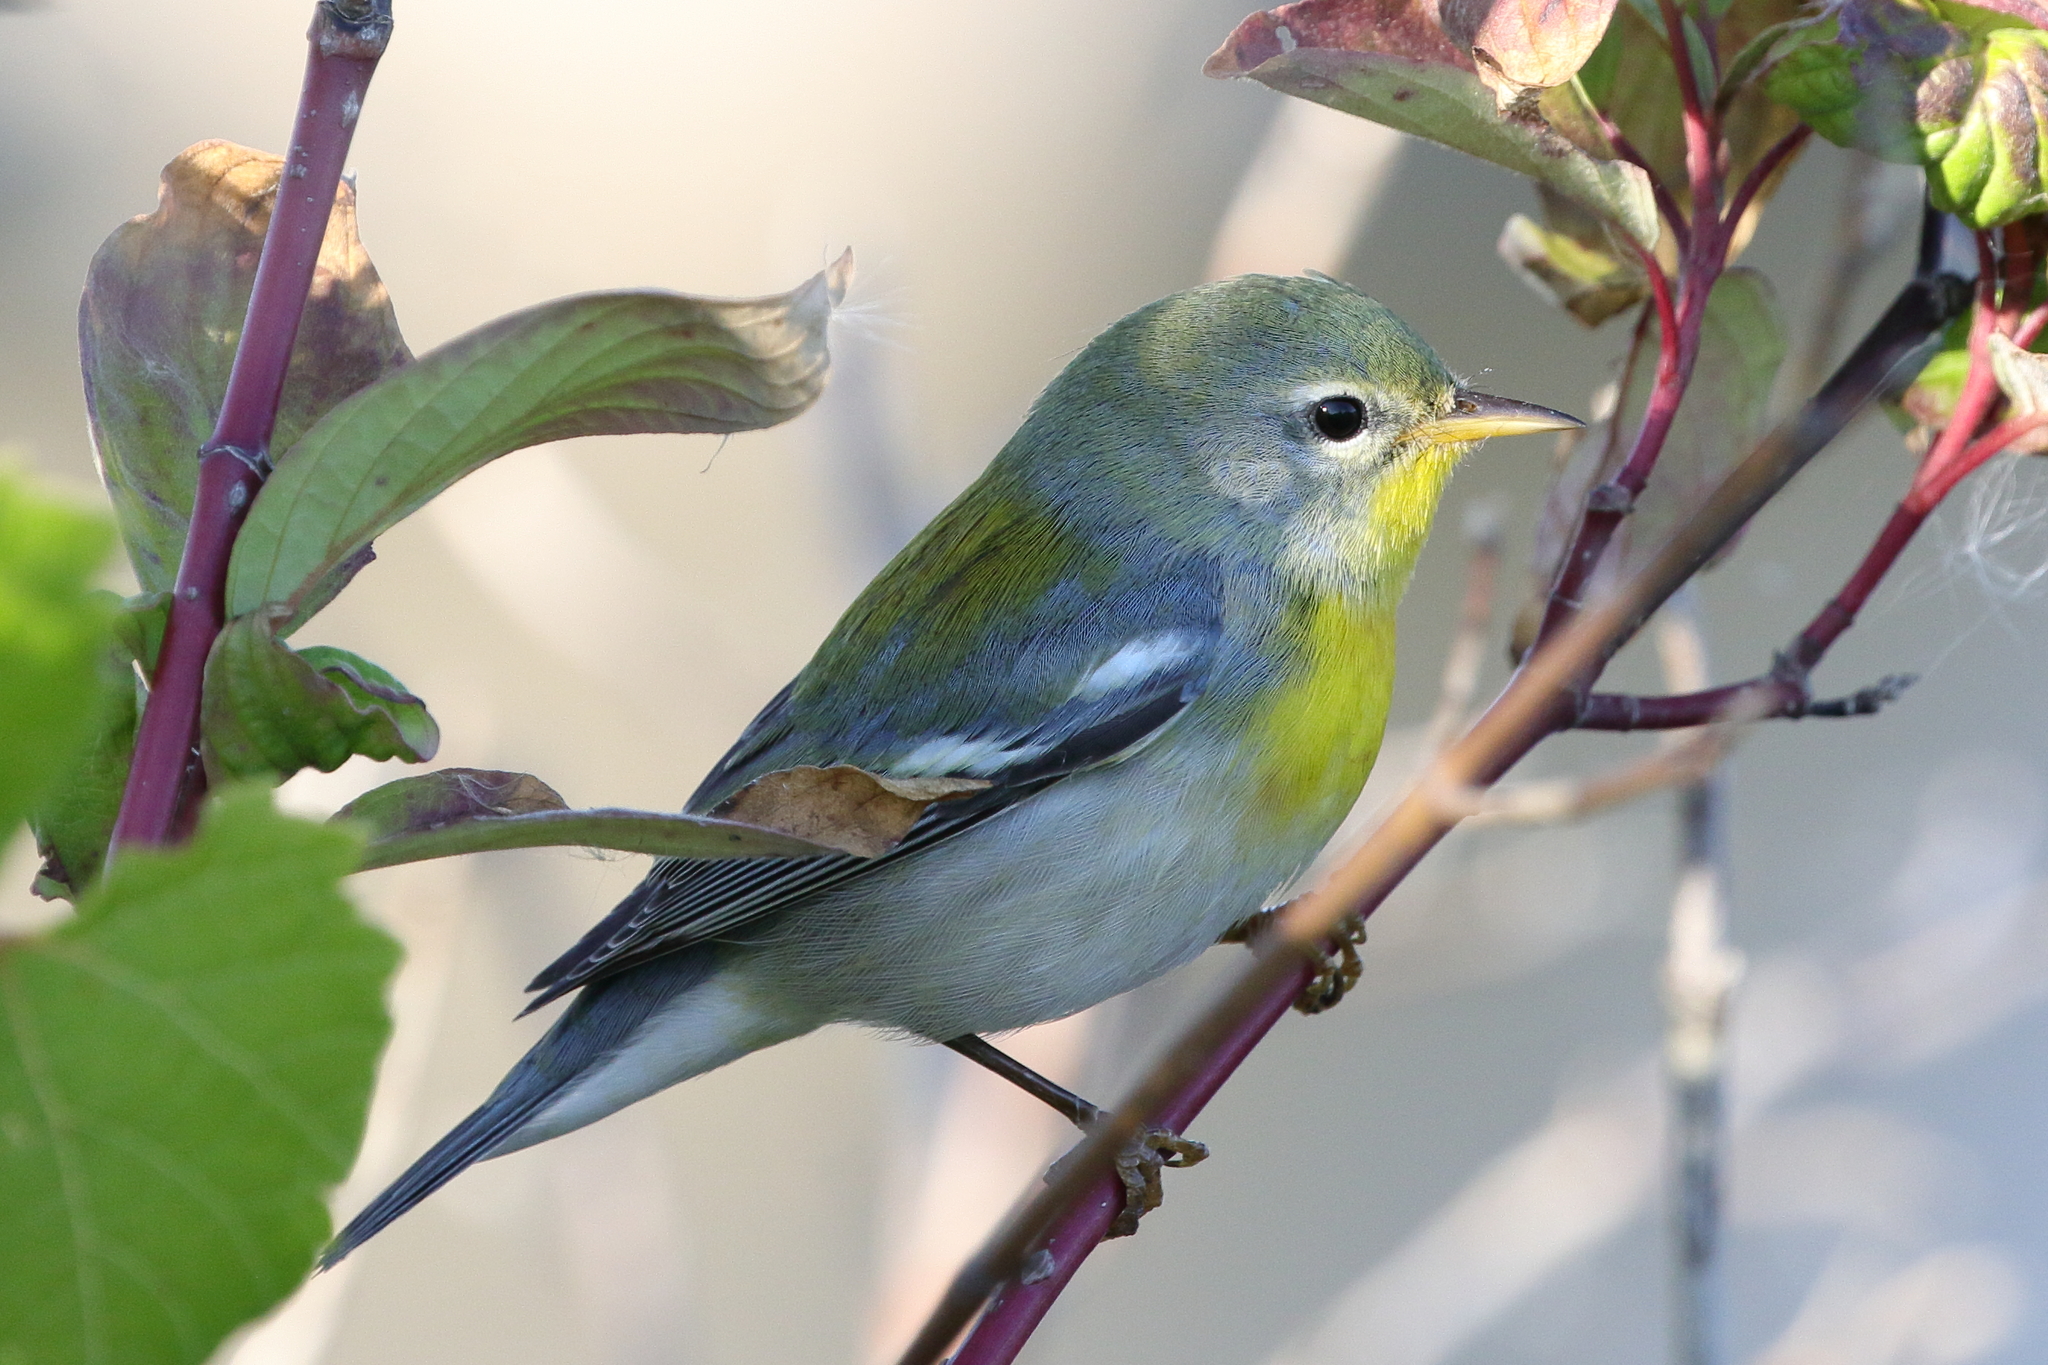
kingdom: Animalia
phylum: Chordata
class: Aves
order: Passeriformes
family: Parulidae
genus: Setophaga
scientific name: Setophaga americana
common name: Northern parula
